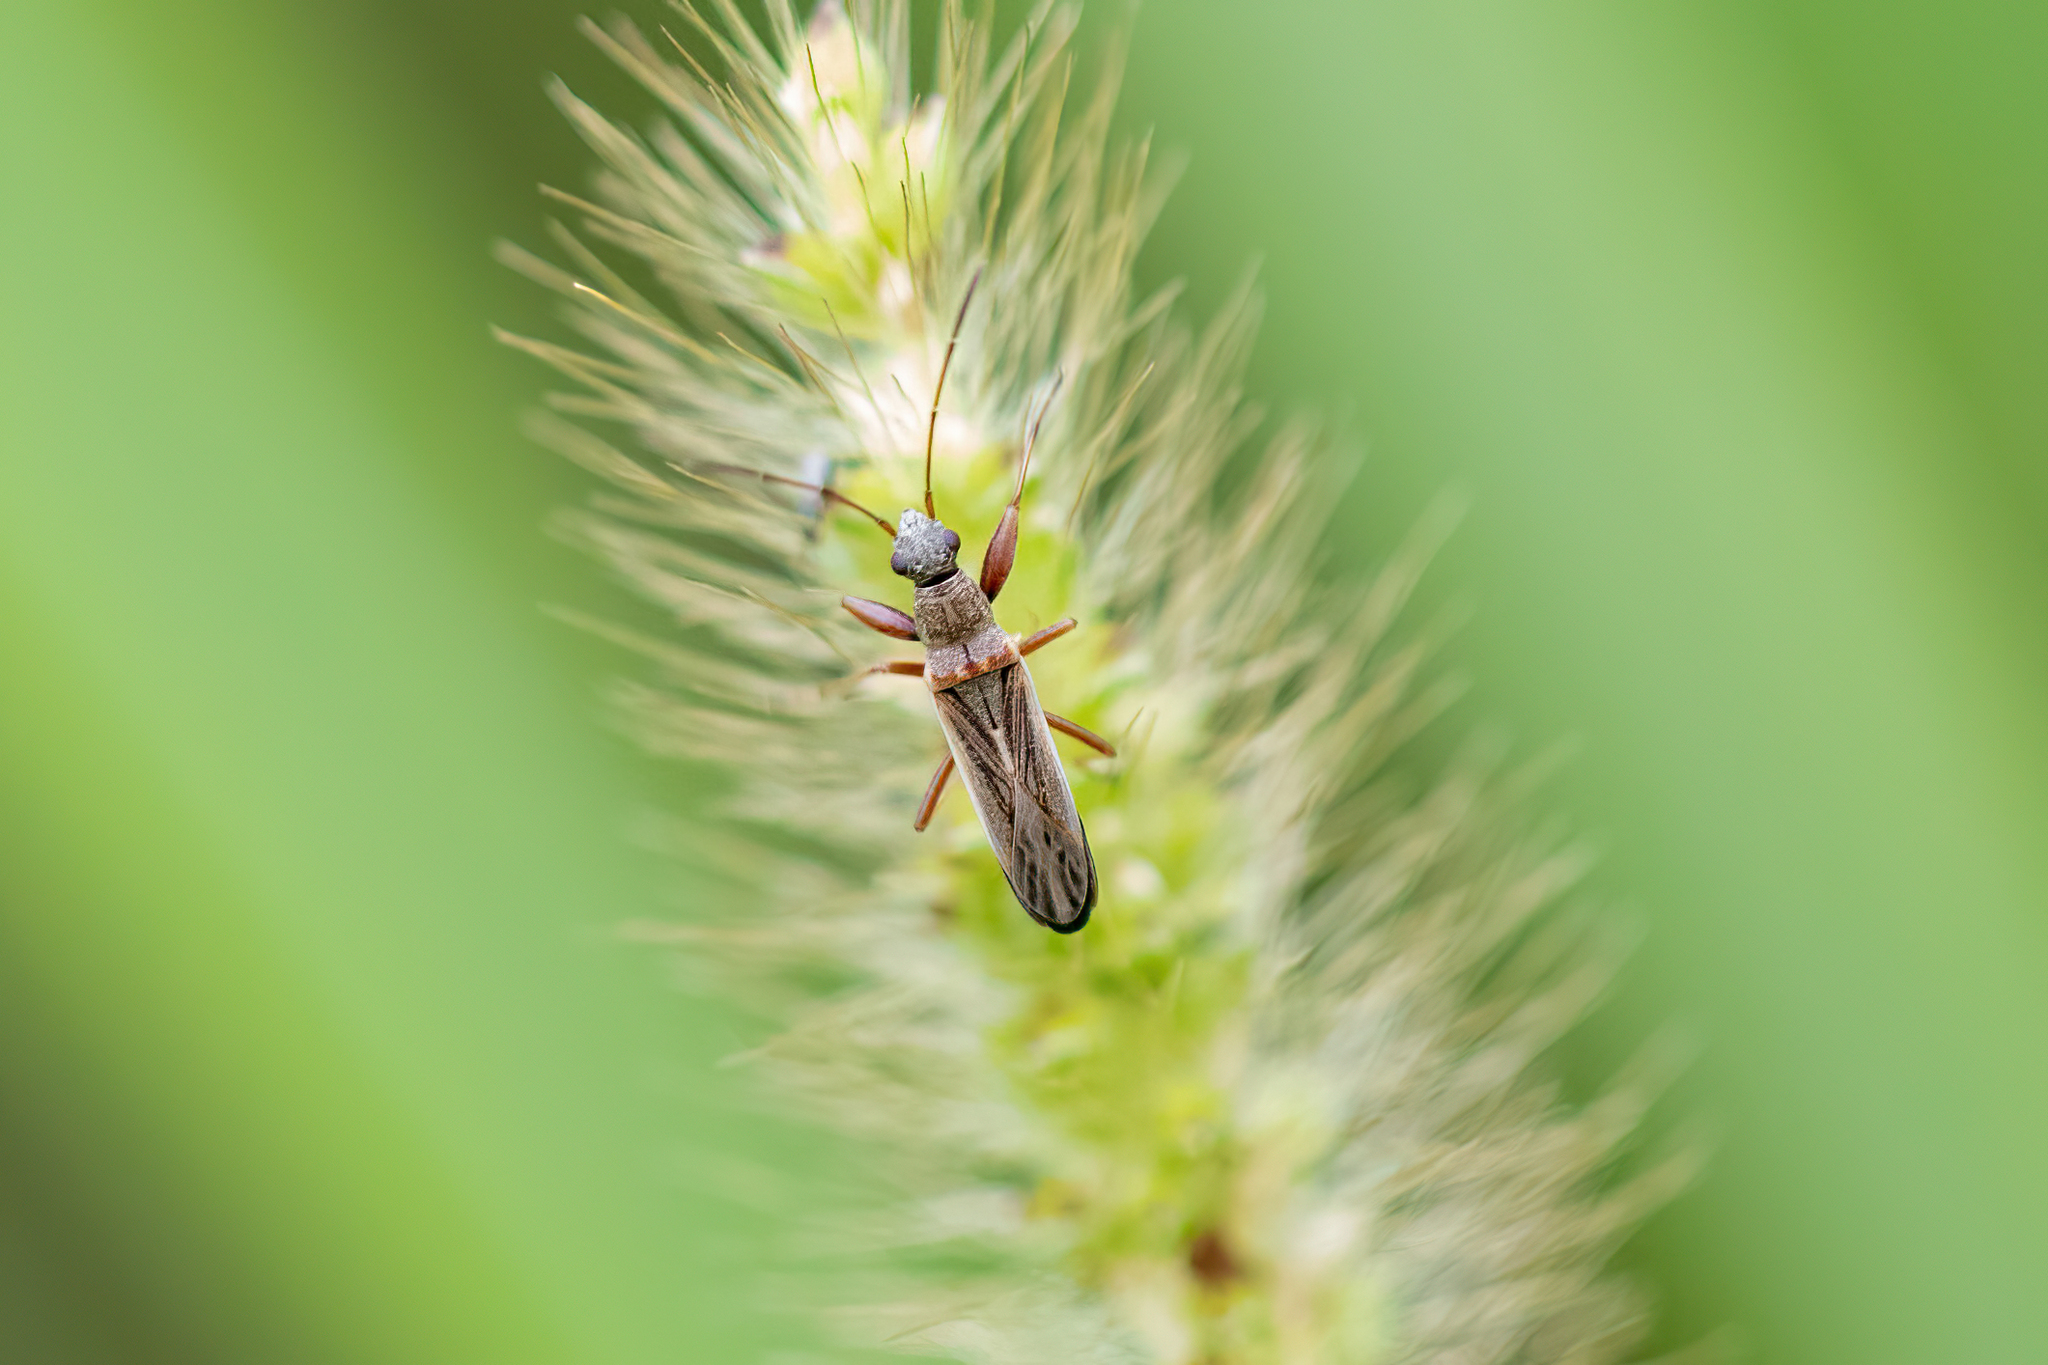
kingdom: Animalia
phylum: Arthropoda
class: Insecta
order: Hemiptera
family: Rhyparochromidae
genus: Paromius
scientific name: Paromius longulus
